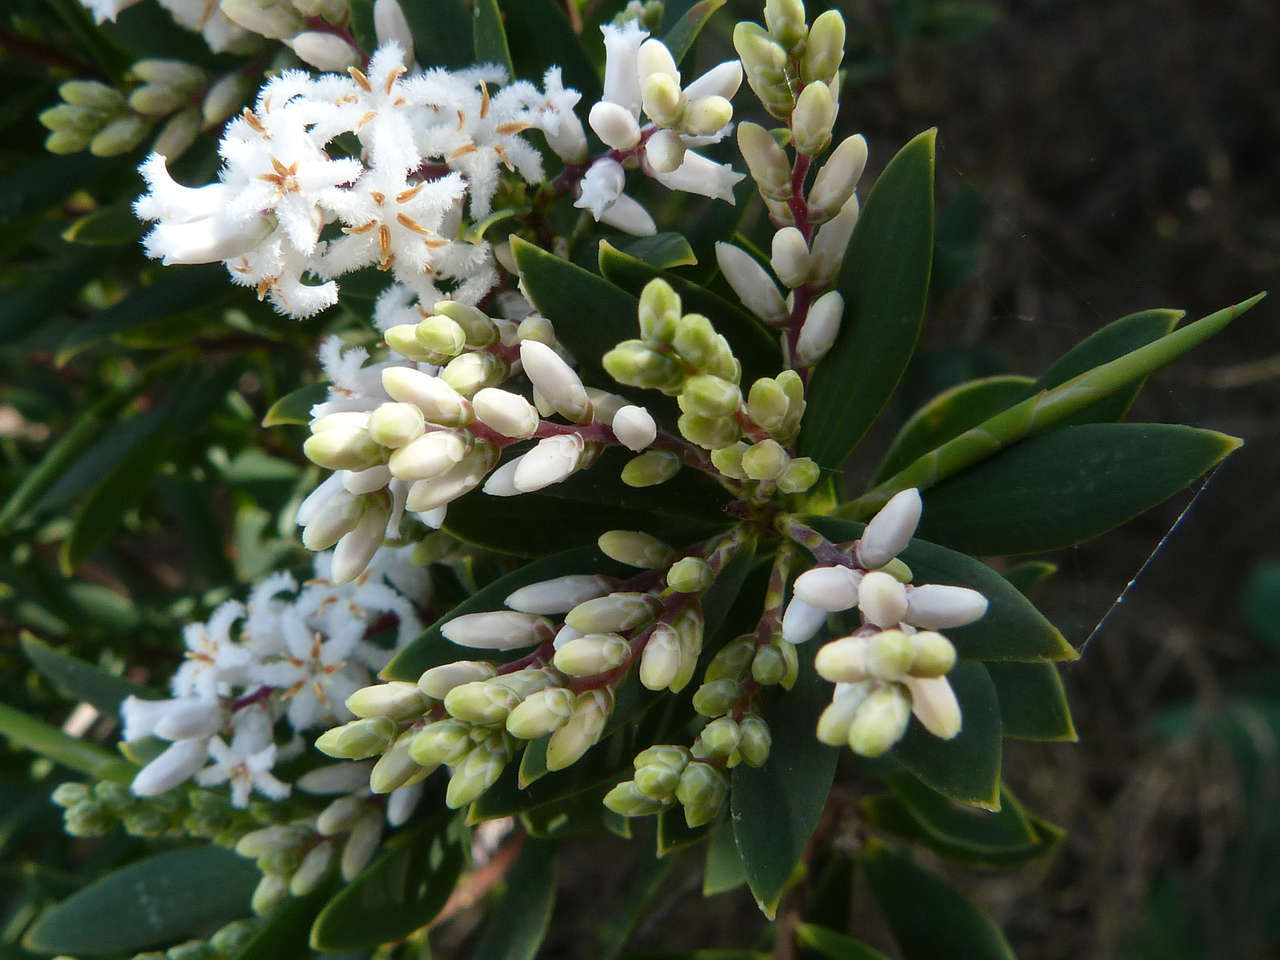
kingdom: Plantae
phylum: Tracheophyta
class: Magnoliopsida
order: Ericales
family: Ericaceae
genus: Leptecophylla
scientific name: Leptecophylla parvifolia
